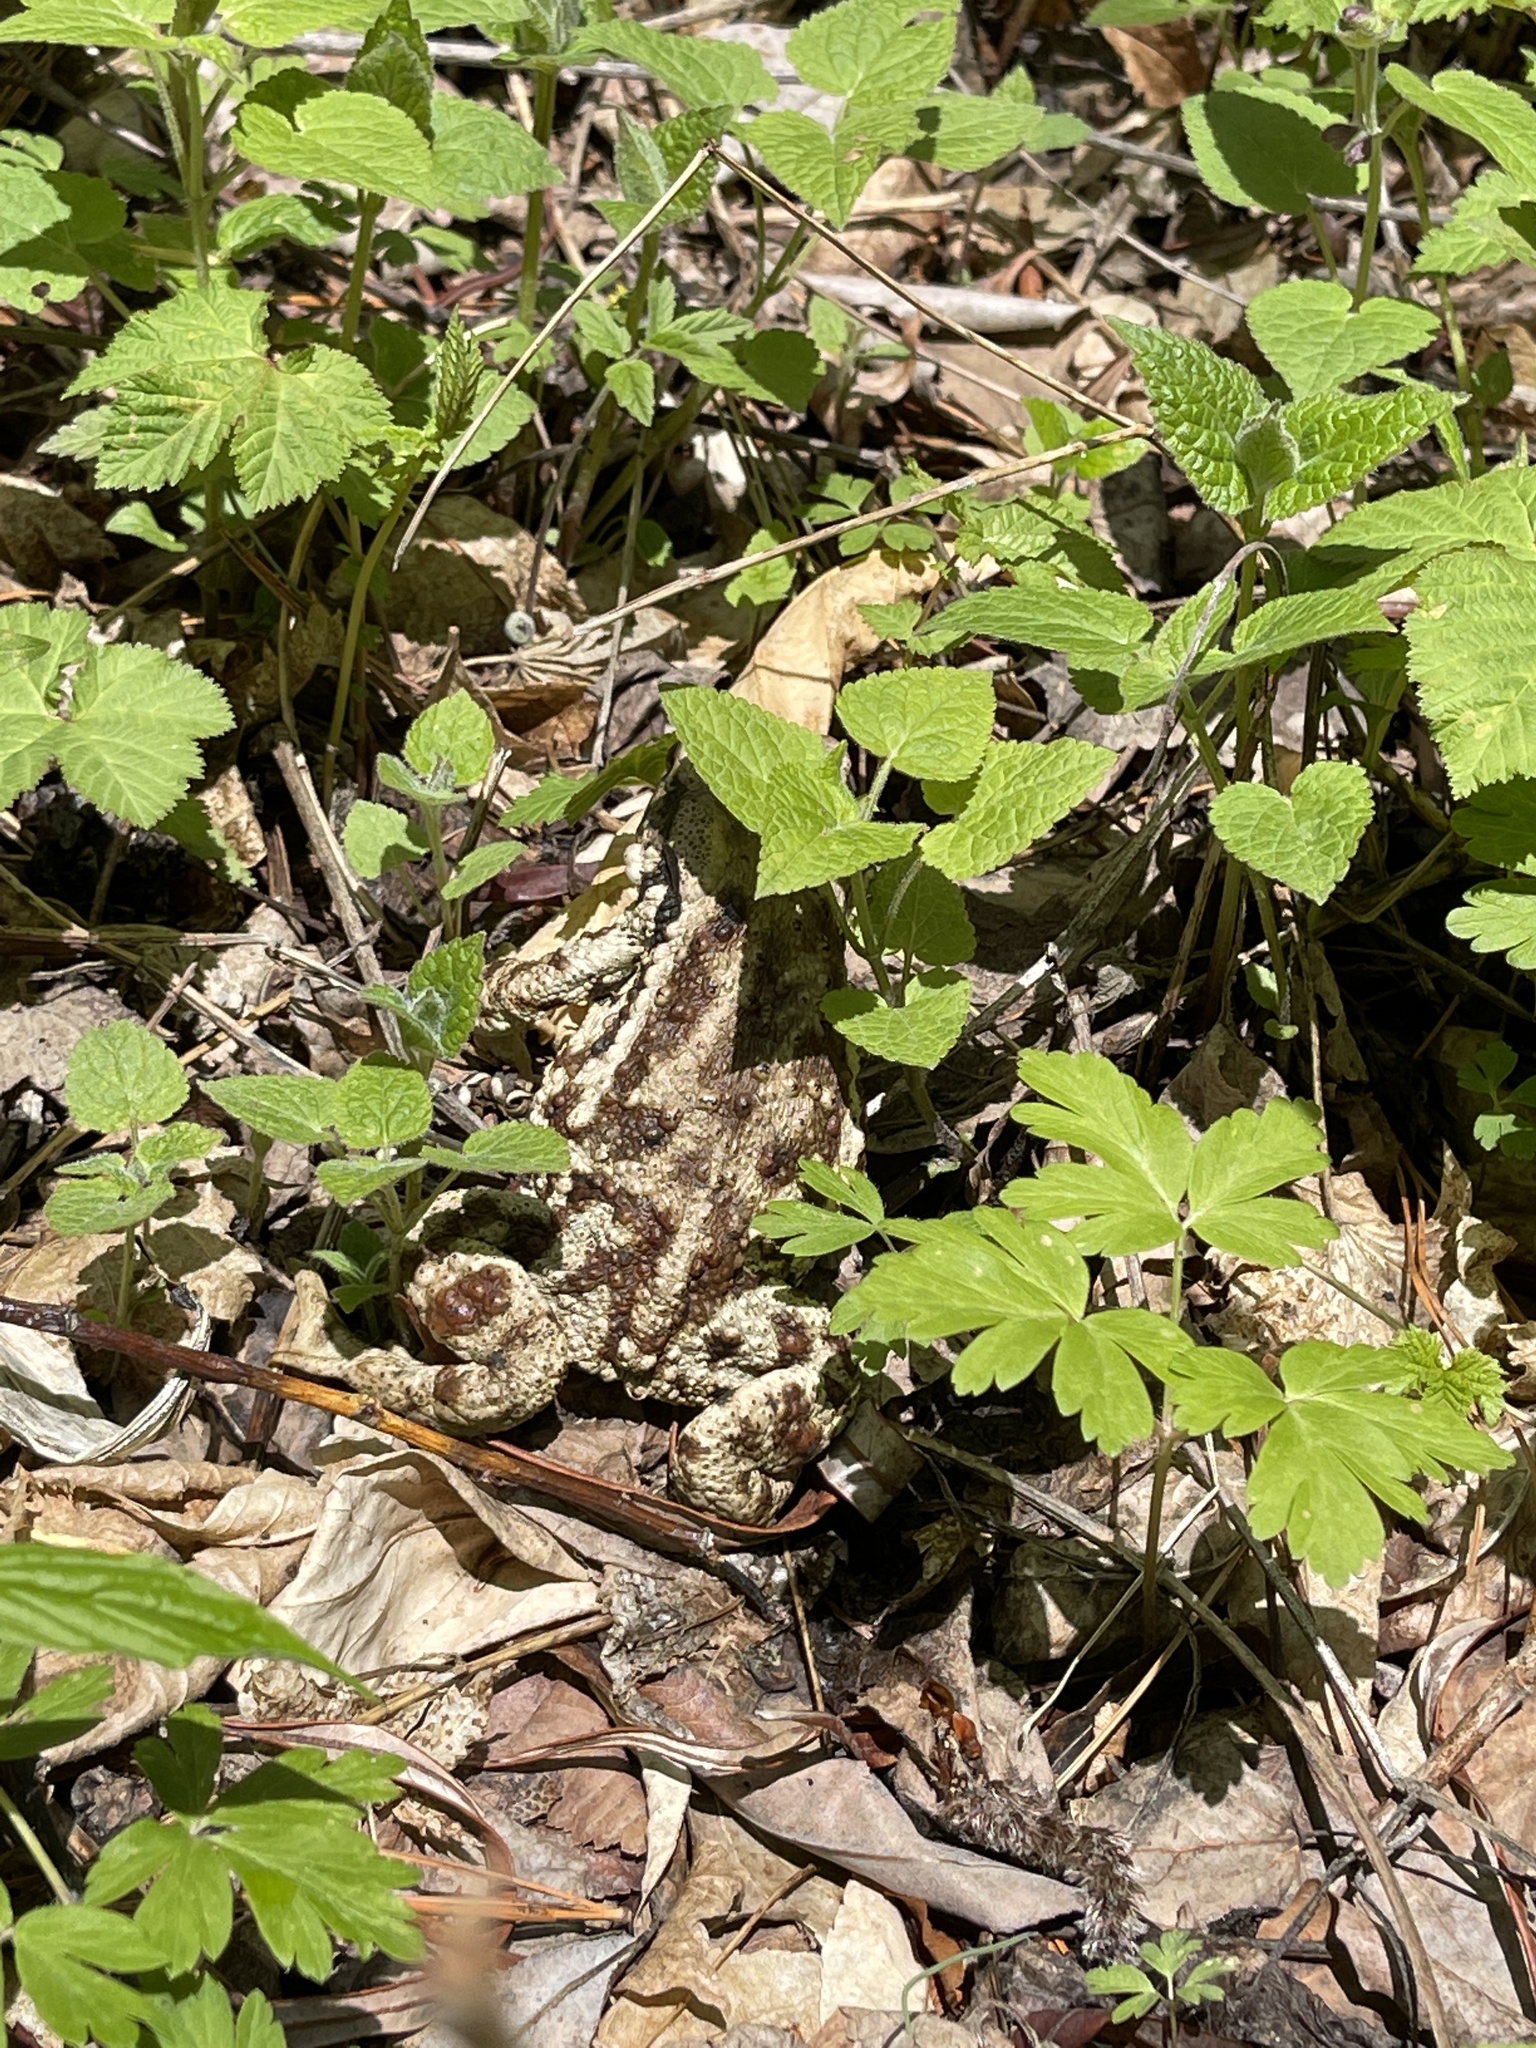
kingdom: Animalia
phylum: Chordata
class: Amphibia
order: Anura
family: Bufonidae
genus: Bufo
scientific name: Bufo gargarizans
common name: Asiatic toad
